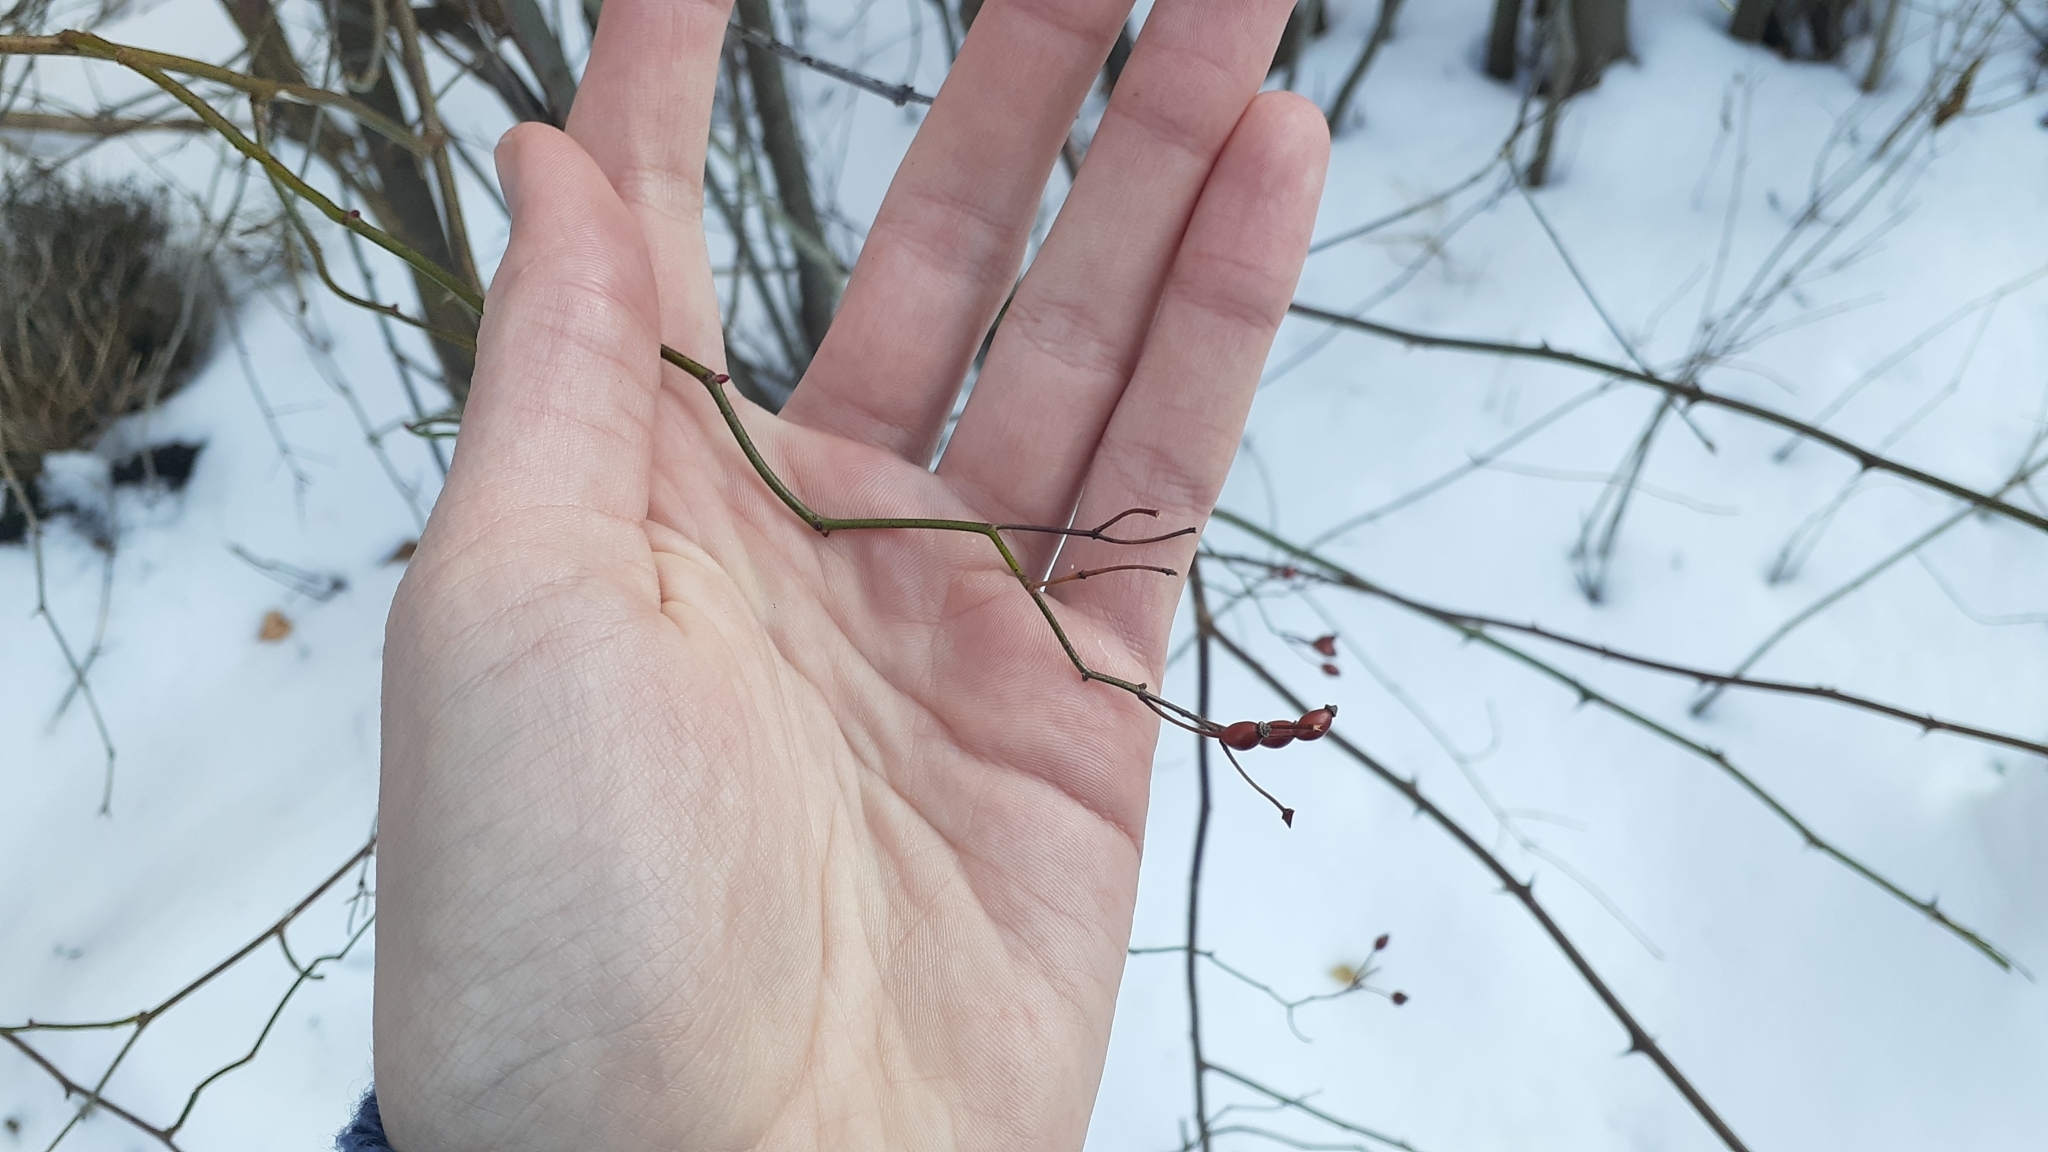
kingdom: Plantae
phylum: Tracheophyta
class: Magnoliopsida
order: Rosales
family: Rosaceae
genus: Rosa
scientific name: Rosa multiflora
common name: Multiflora rose
